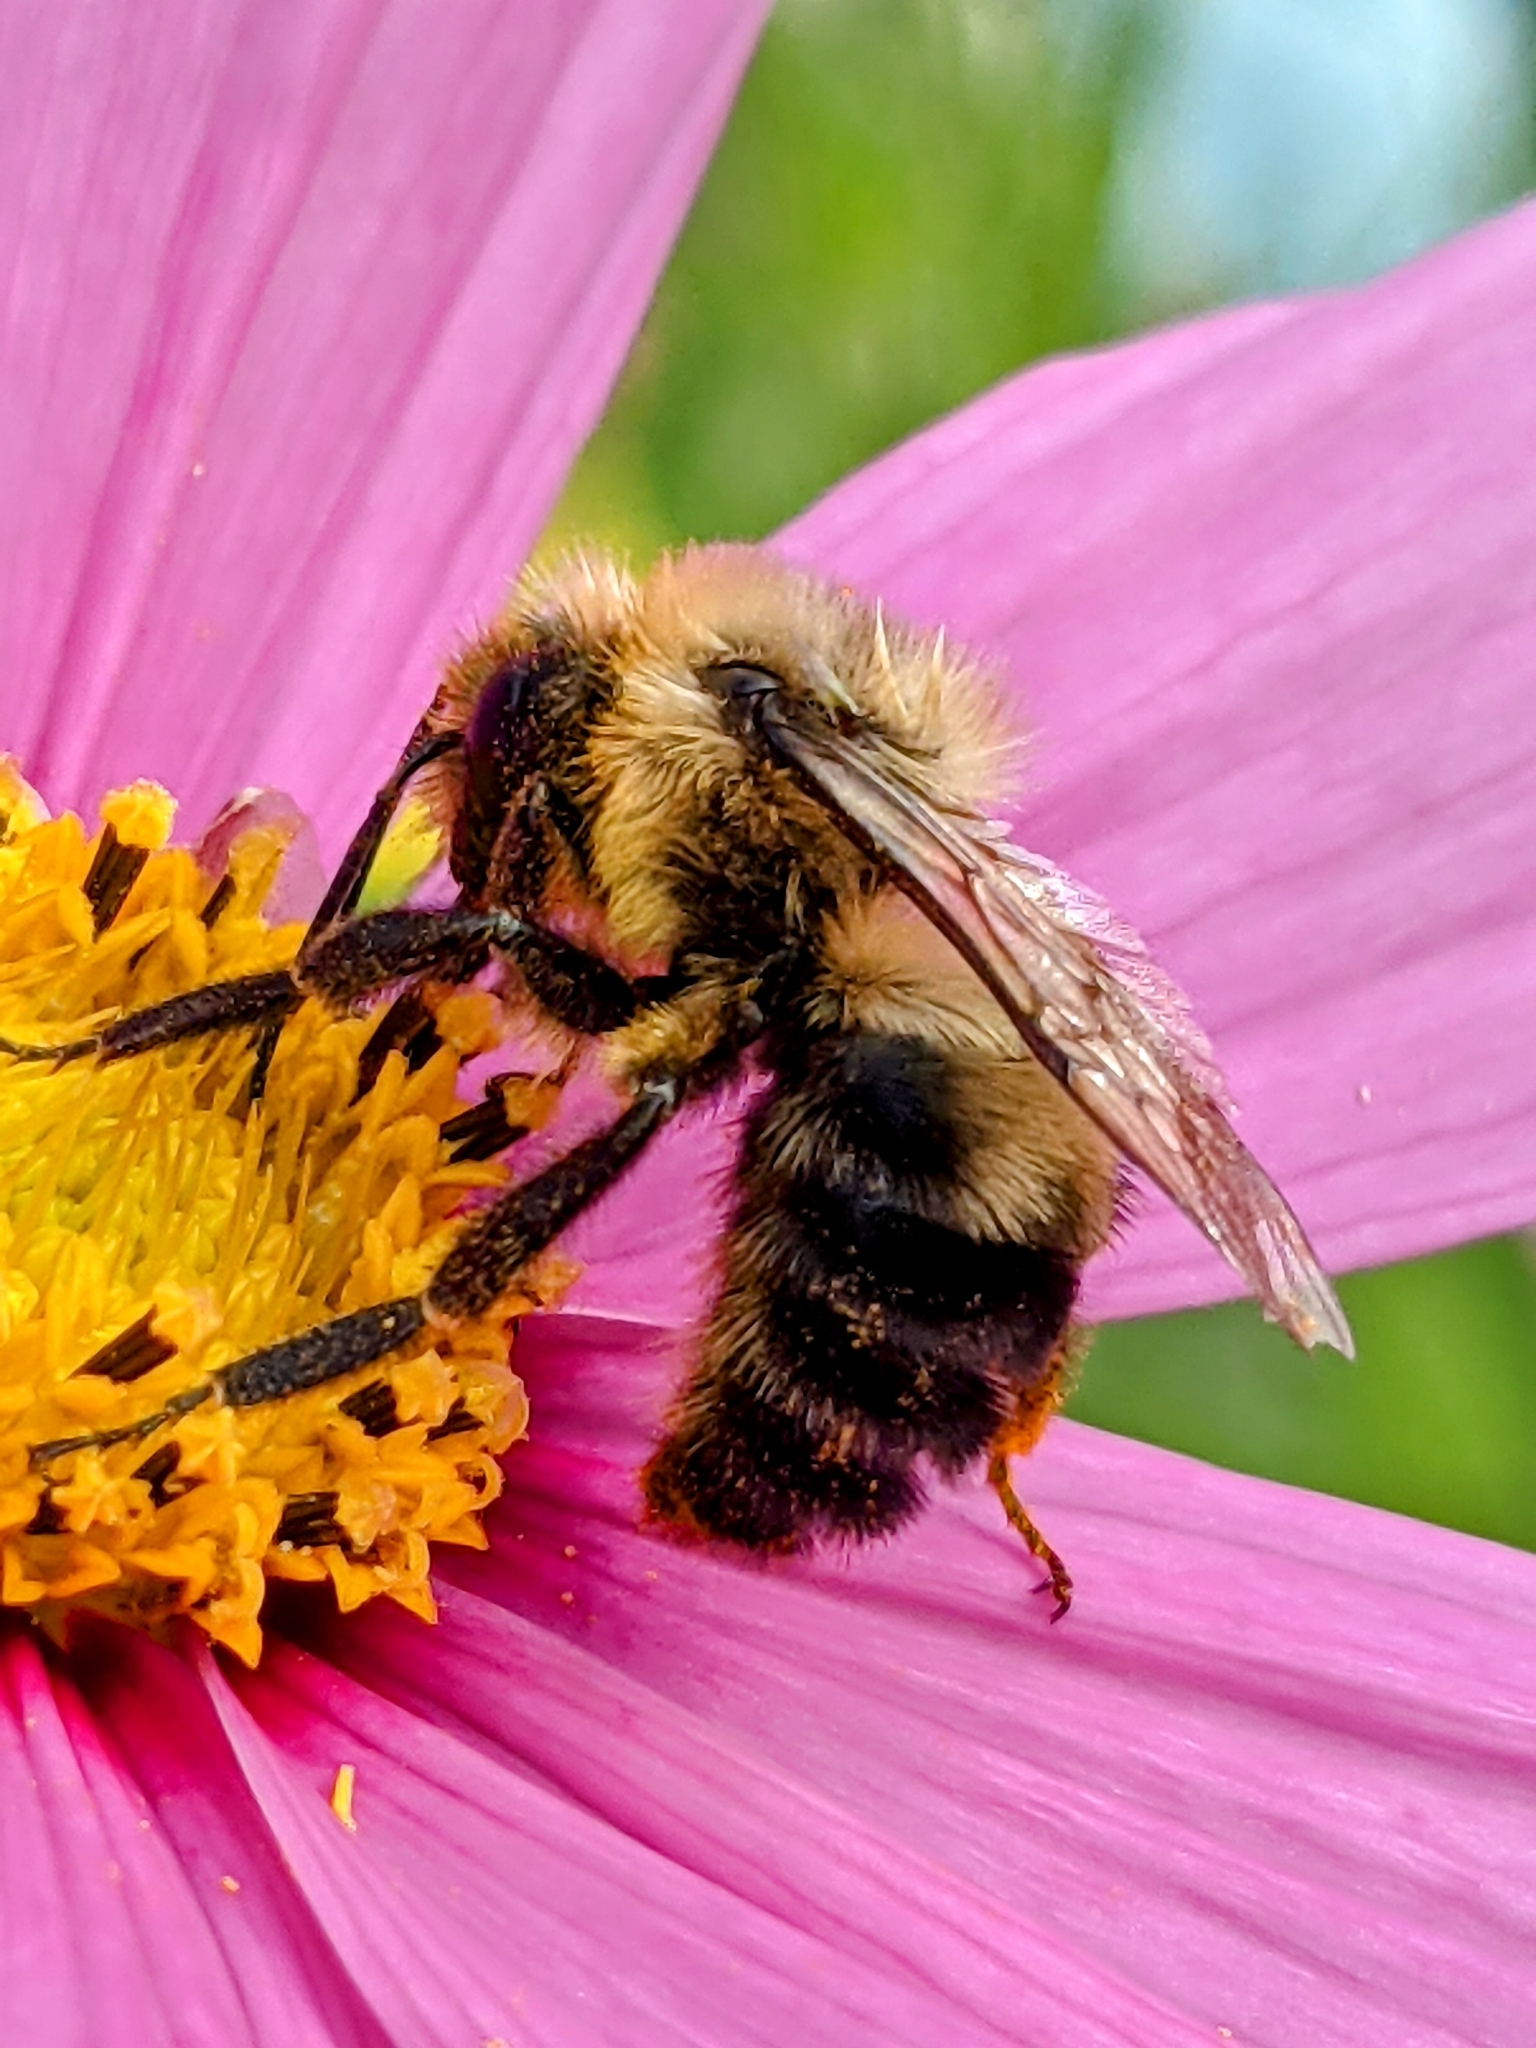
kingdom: Animalia
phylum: Arthropoda
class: Insecta
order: Hymenoptera
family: Apidae
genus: Bombus
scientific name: Bombus bimaculatus
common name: Two-spotted bumble bee
